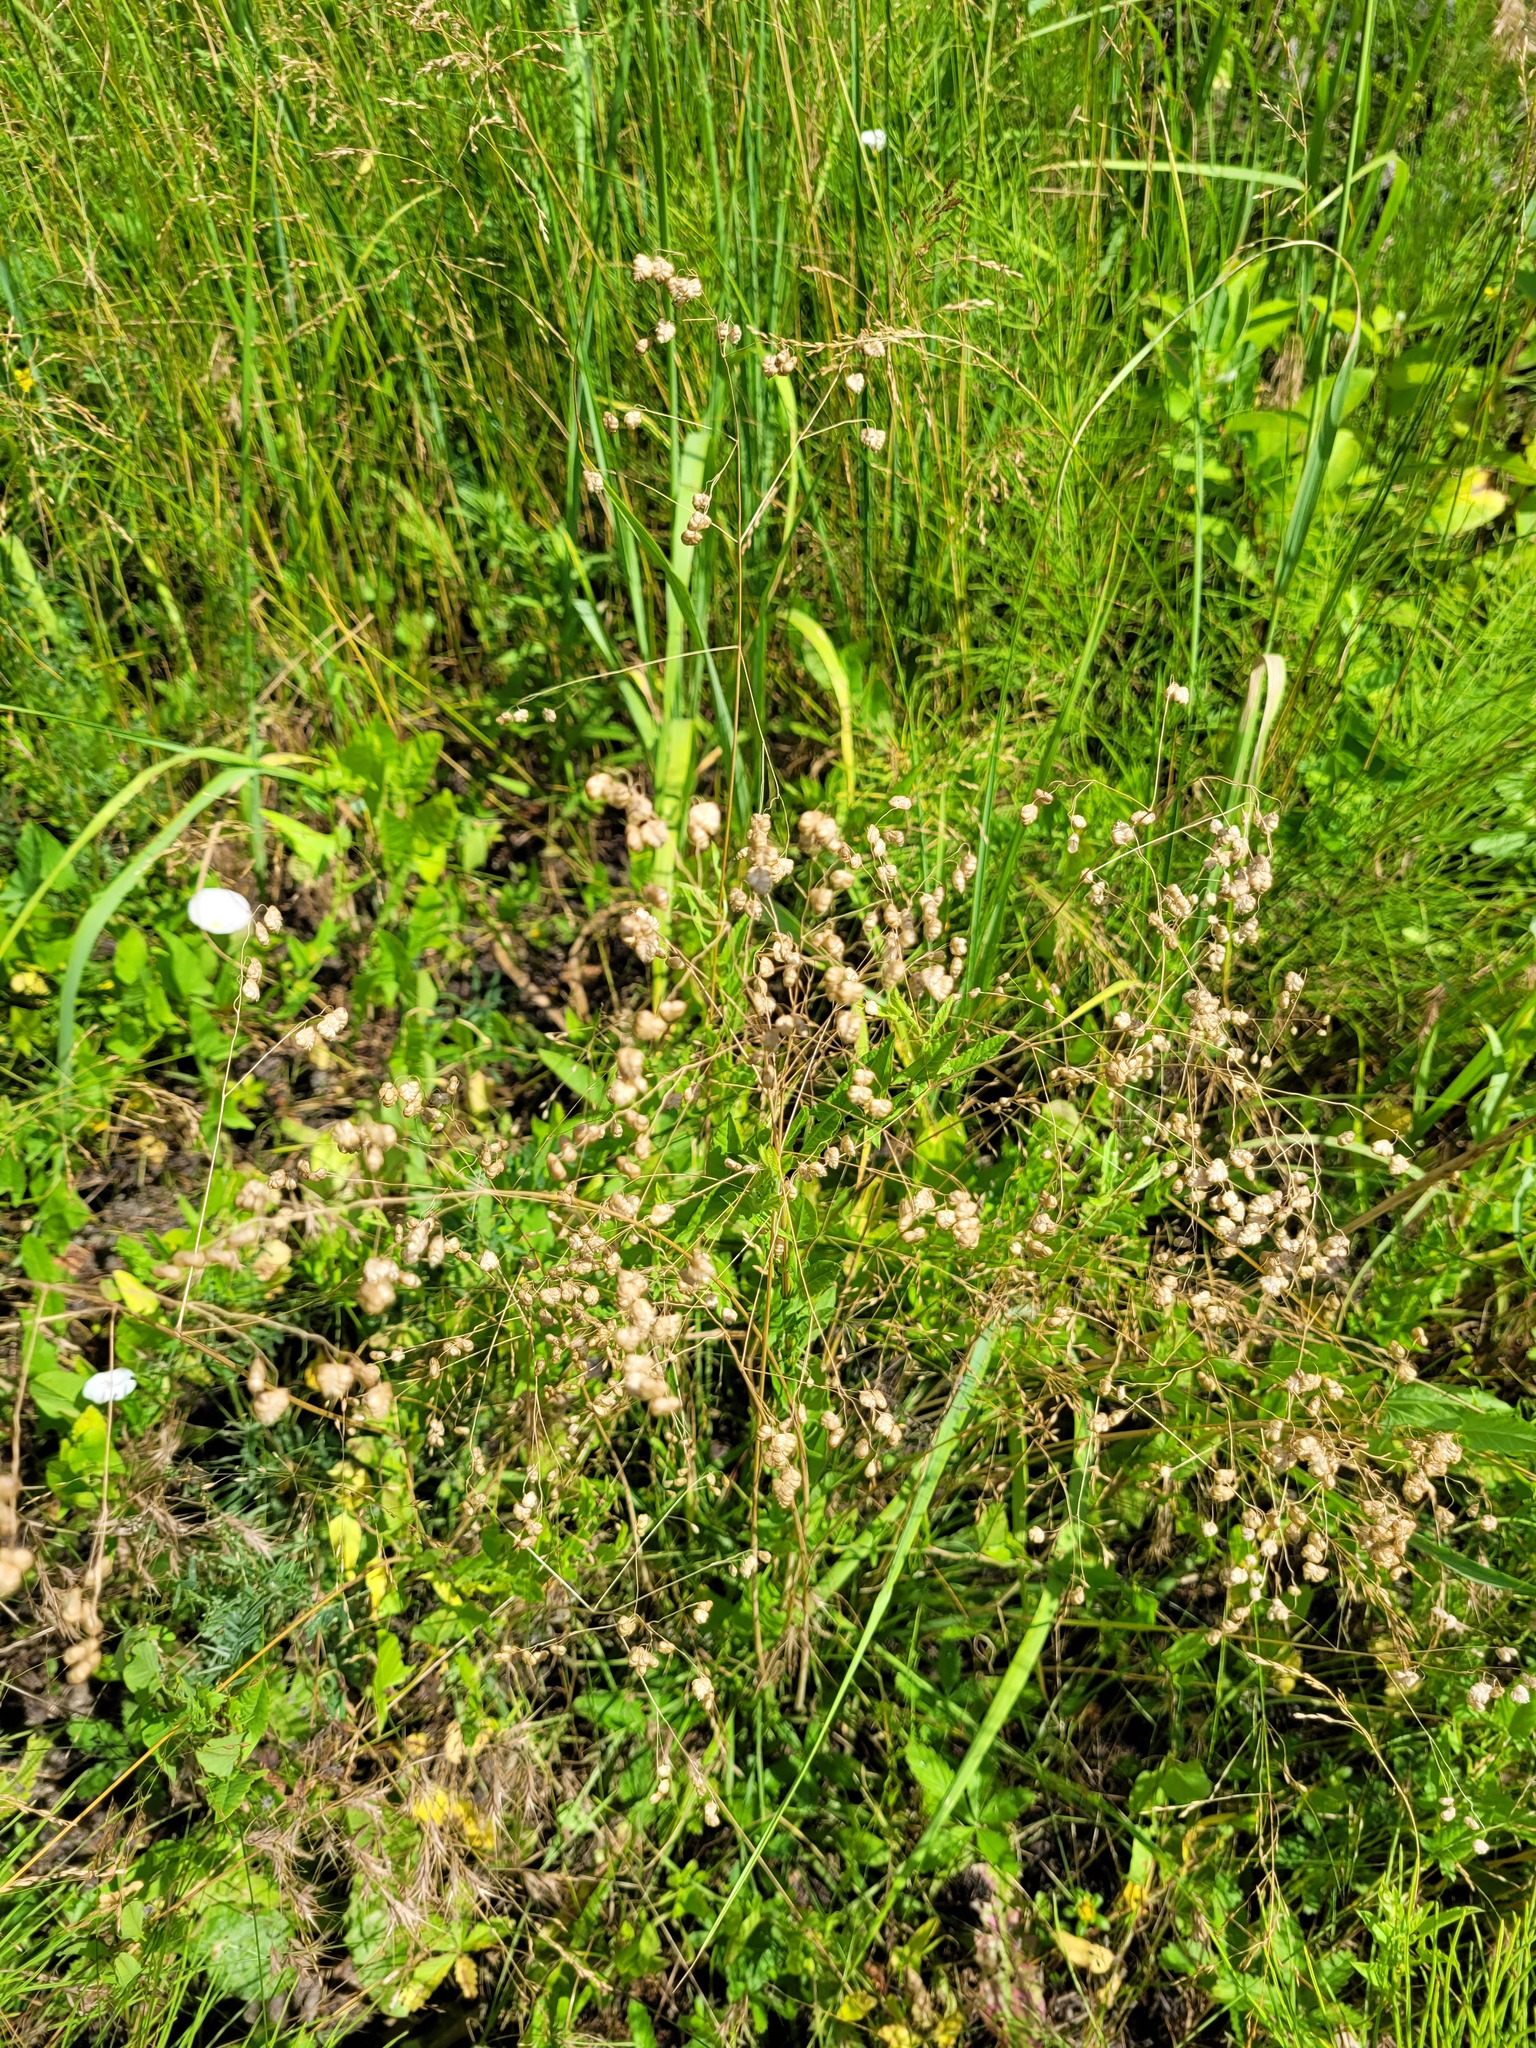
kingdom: Plantae
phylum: Tracheophyta
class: Liliopsida
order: Poales
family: Poaceae
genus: Briza
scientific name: Briza media
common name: Quaking grass
